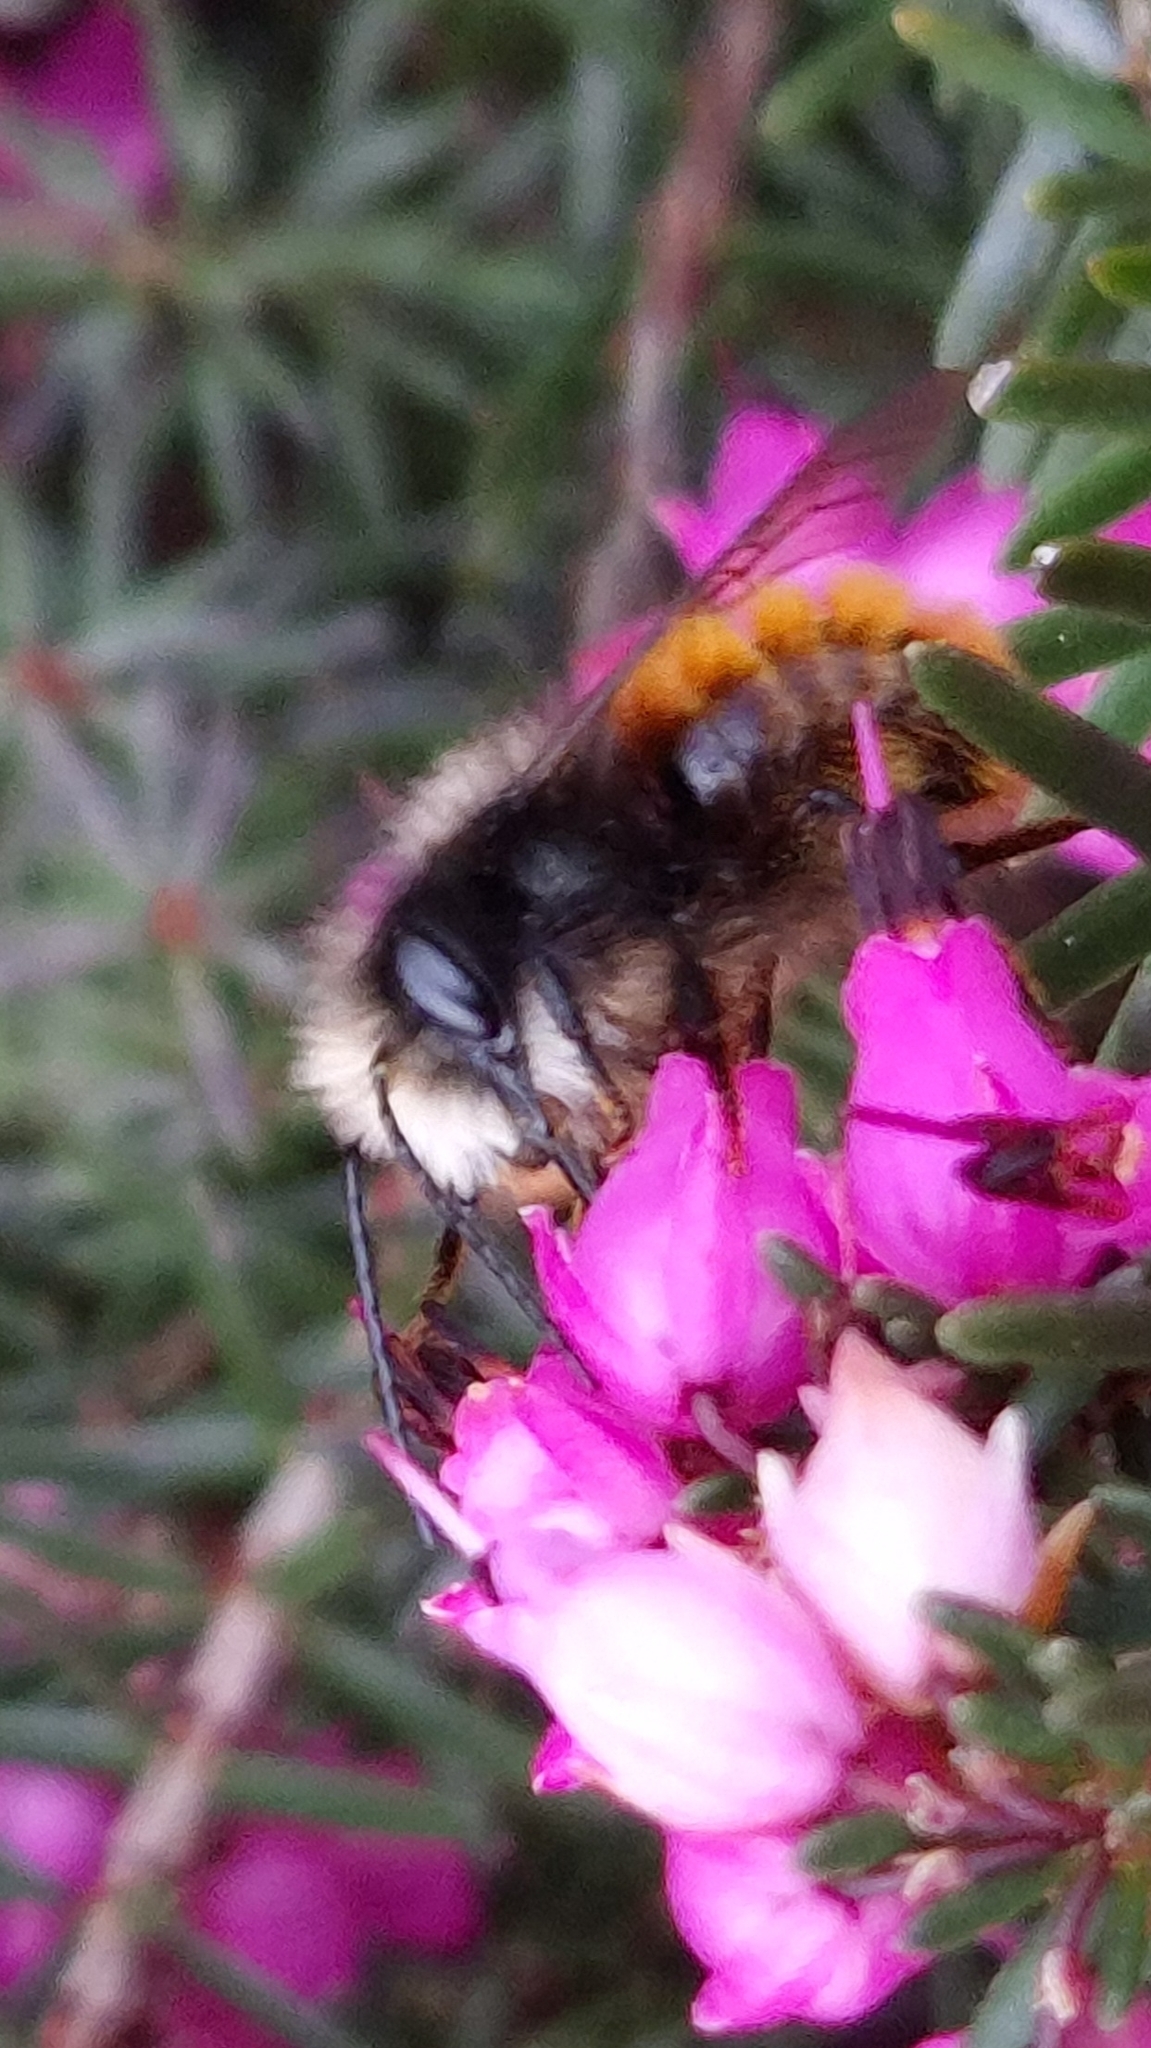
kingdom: Animalia
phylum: Arthropoda
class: Insecta
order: Hymenoptera
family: Megachilidae
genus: Osmia
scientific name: Osmia cornuta
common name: Mason bee
